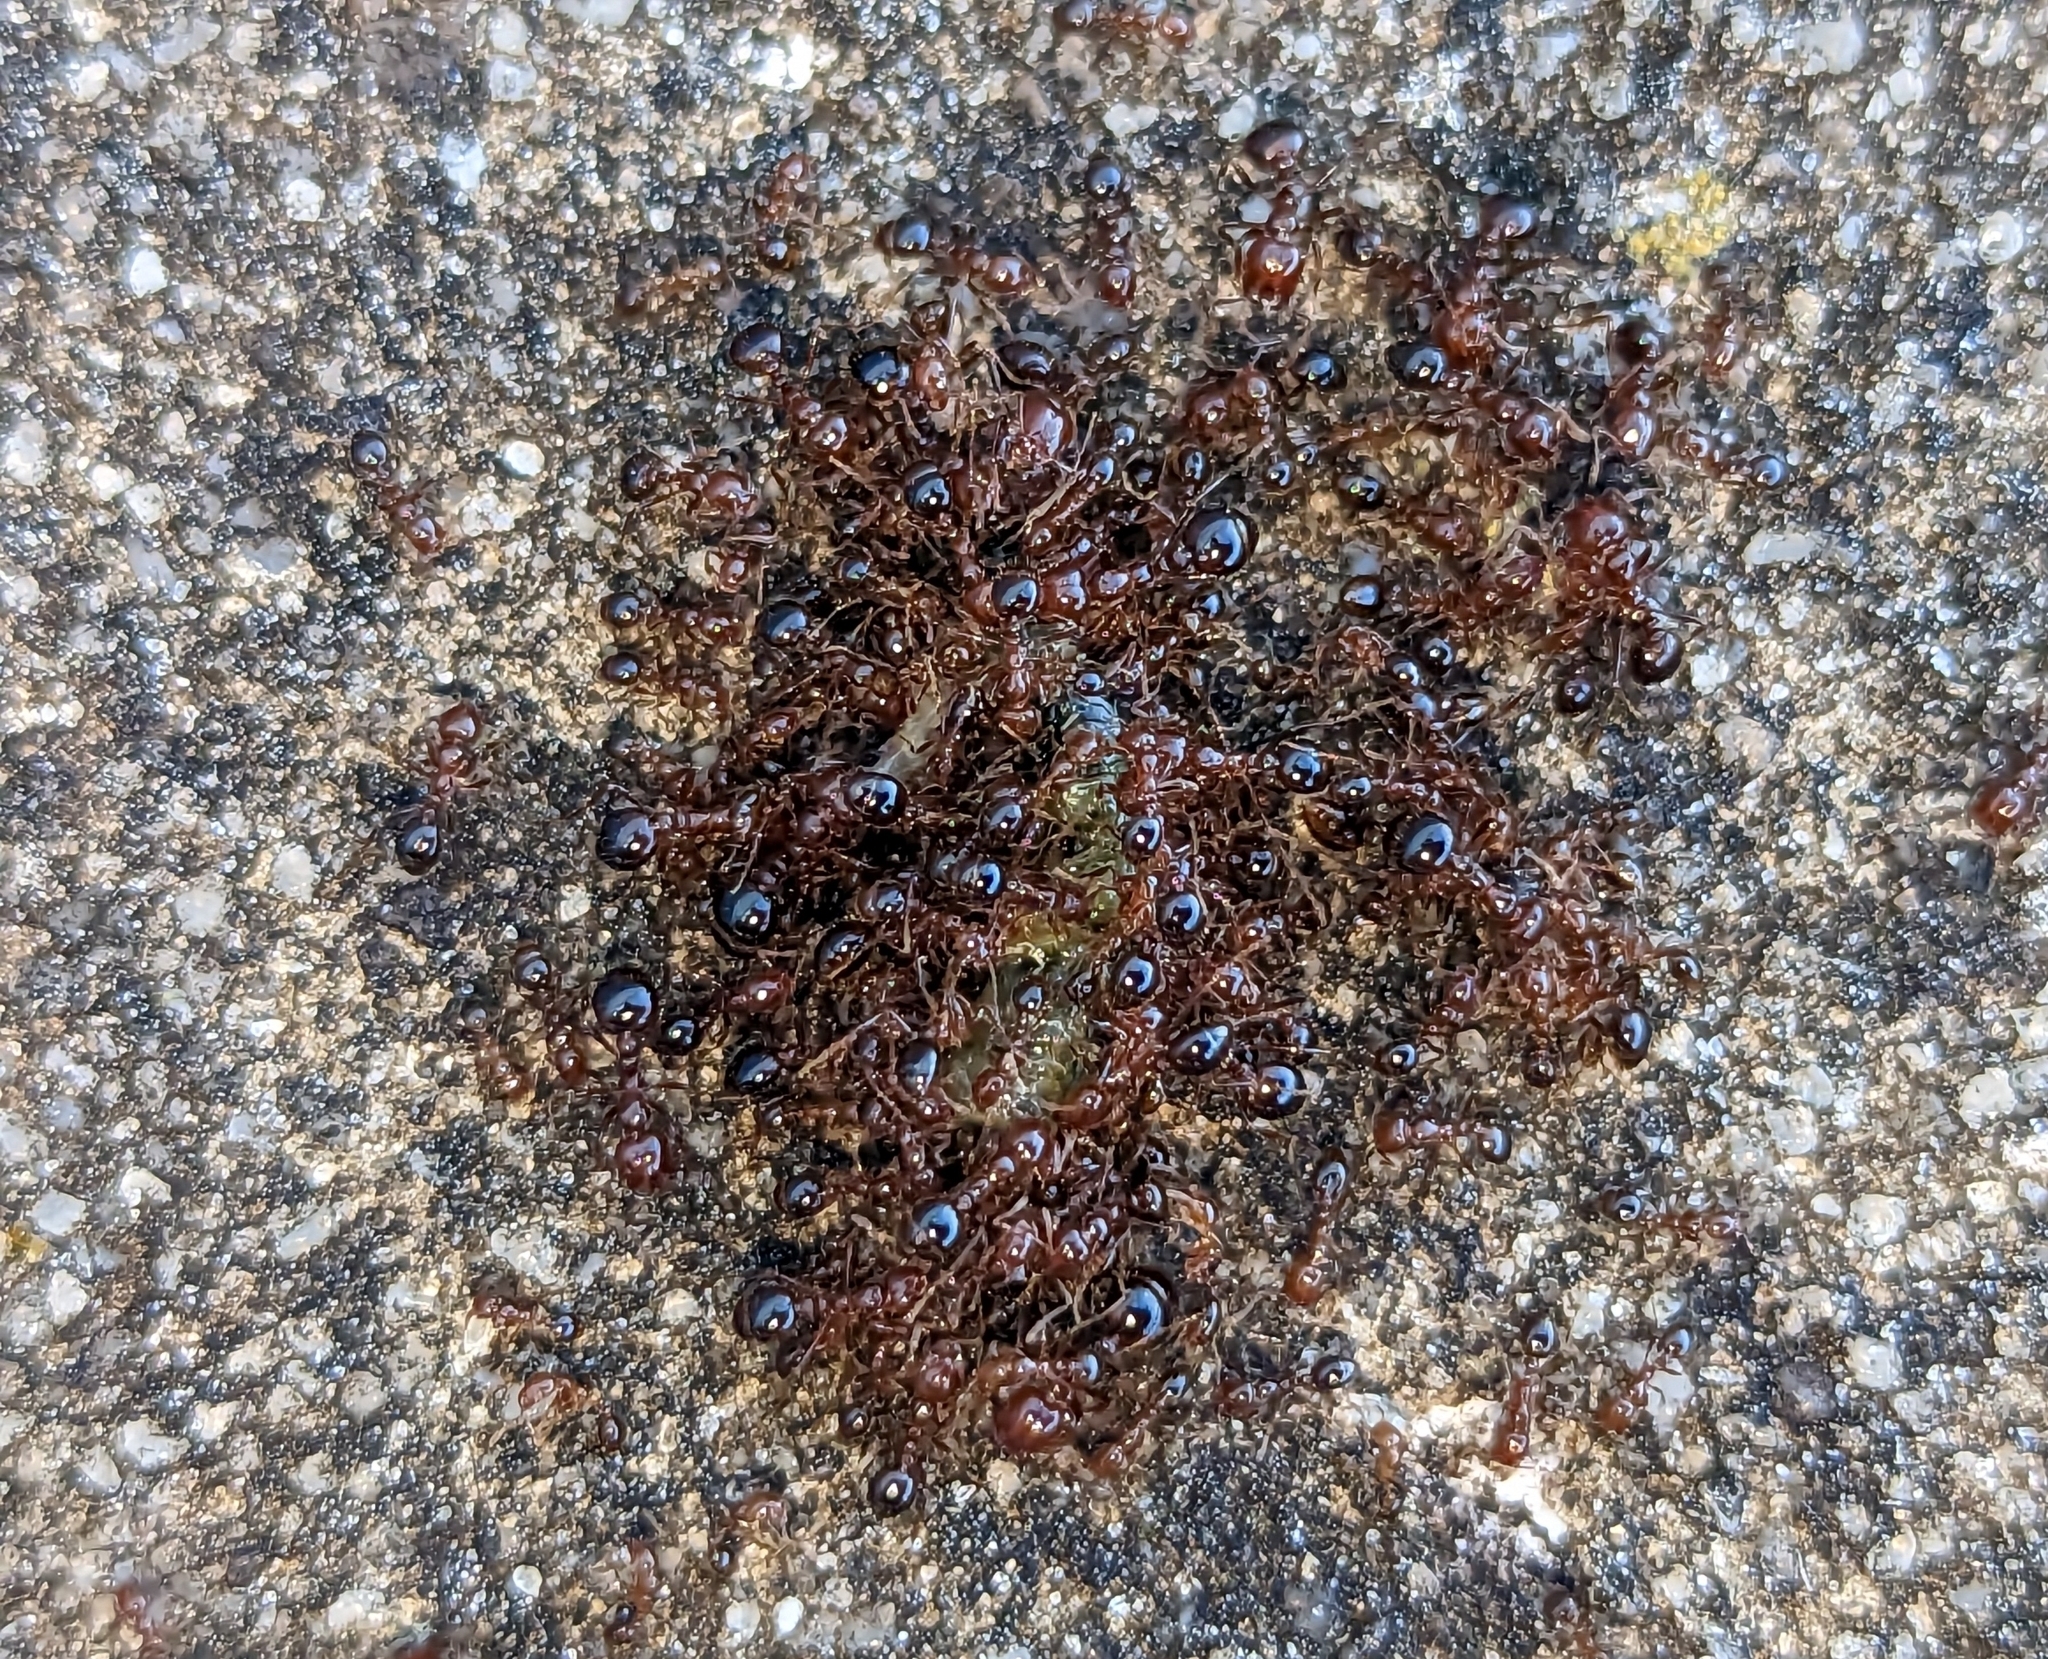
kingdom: Animalia
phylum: Arthropoda
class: Insecta
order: Hymenoptera
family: Formicidae
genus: Solenopsis
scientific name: Solenopsis invicta
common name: Red imported fire ant
